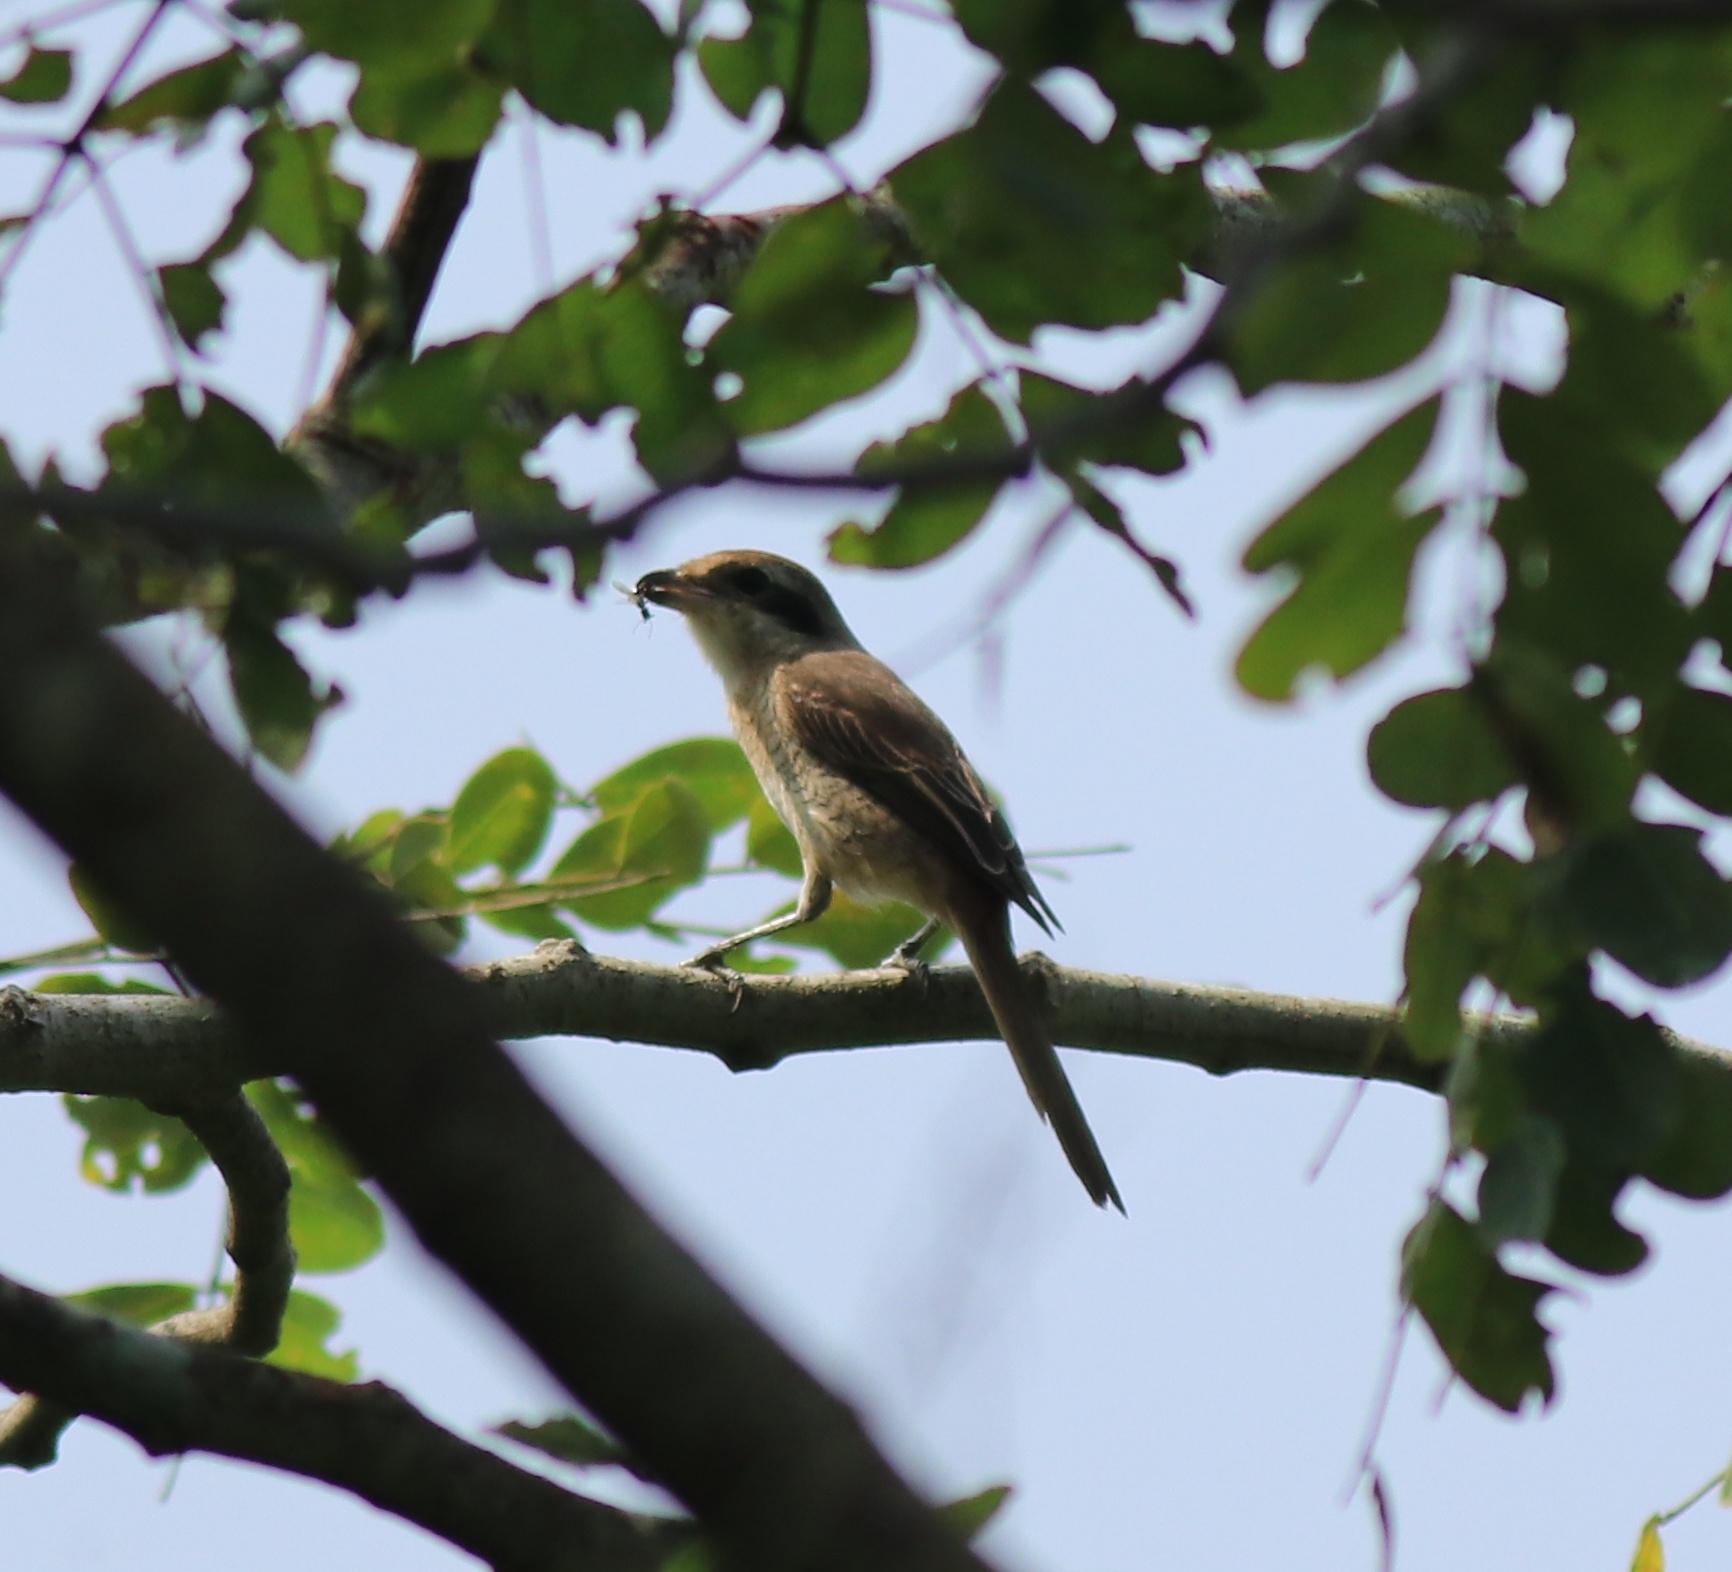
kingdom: Animalia
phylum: Chordata
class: Aves
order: Passeriformes
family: Laniidae
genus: Lanius
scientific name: Lanius cristatus
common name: Brown shrike
